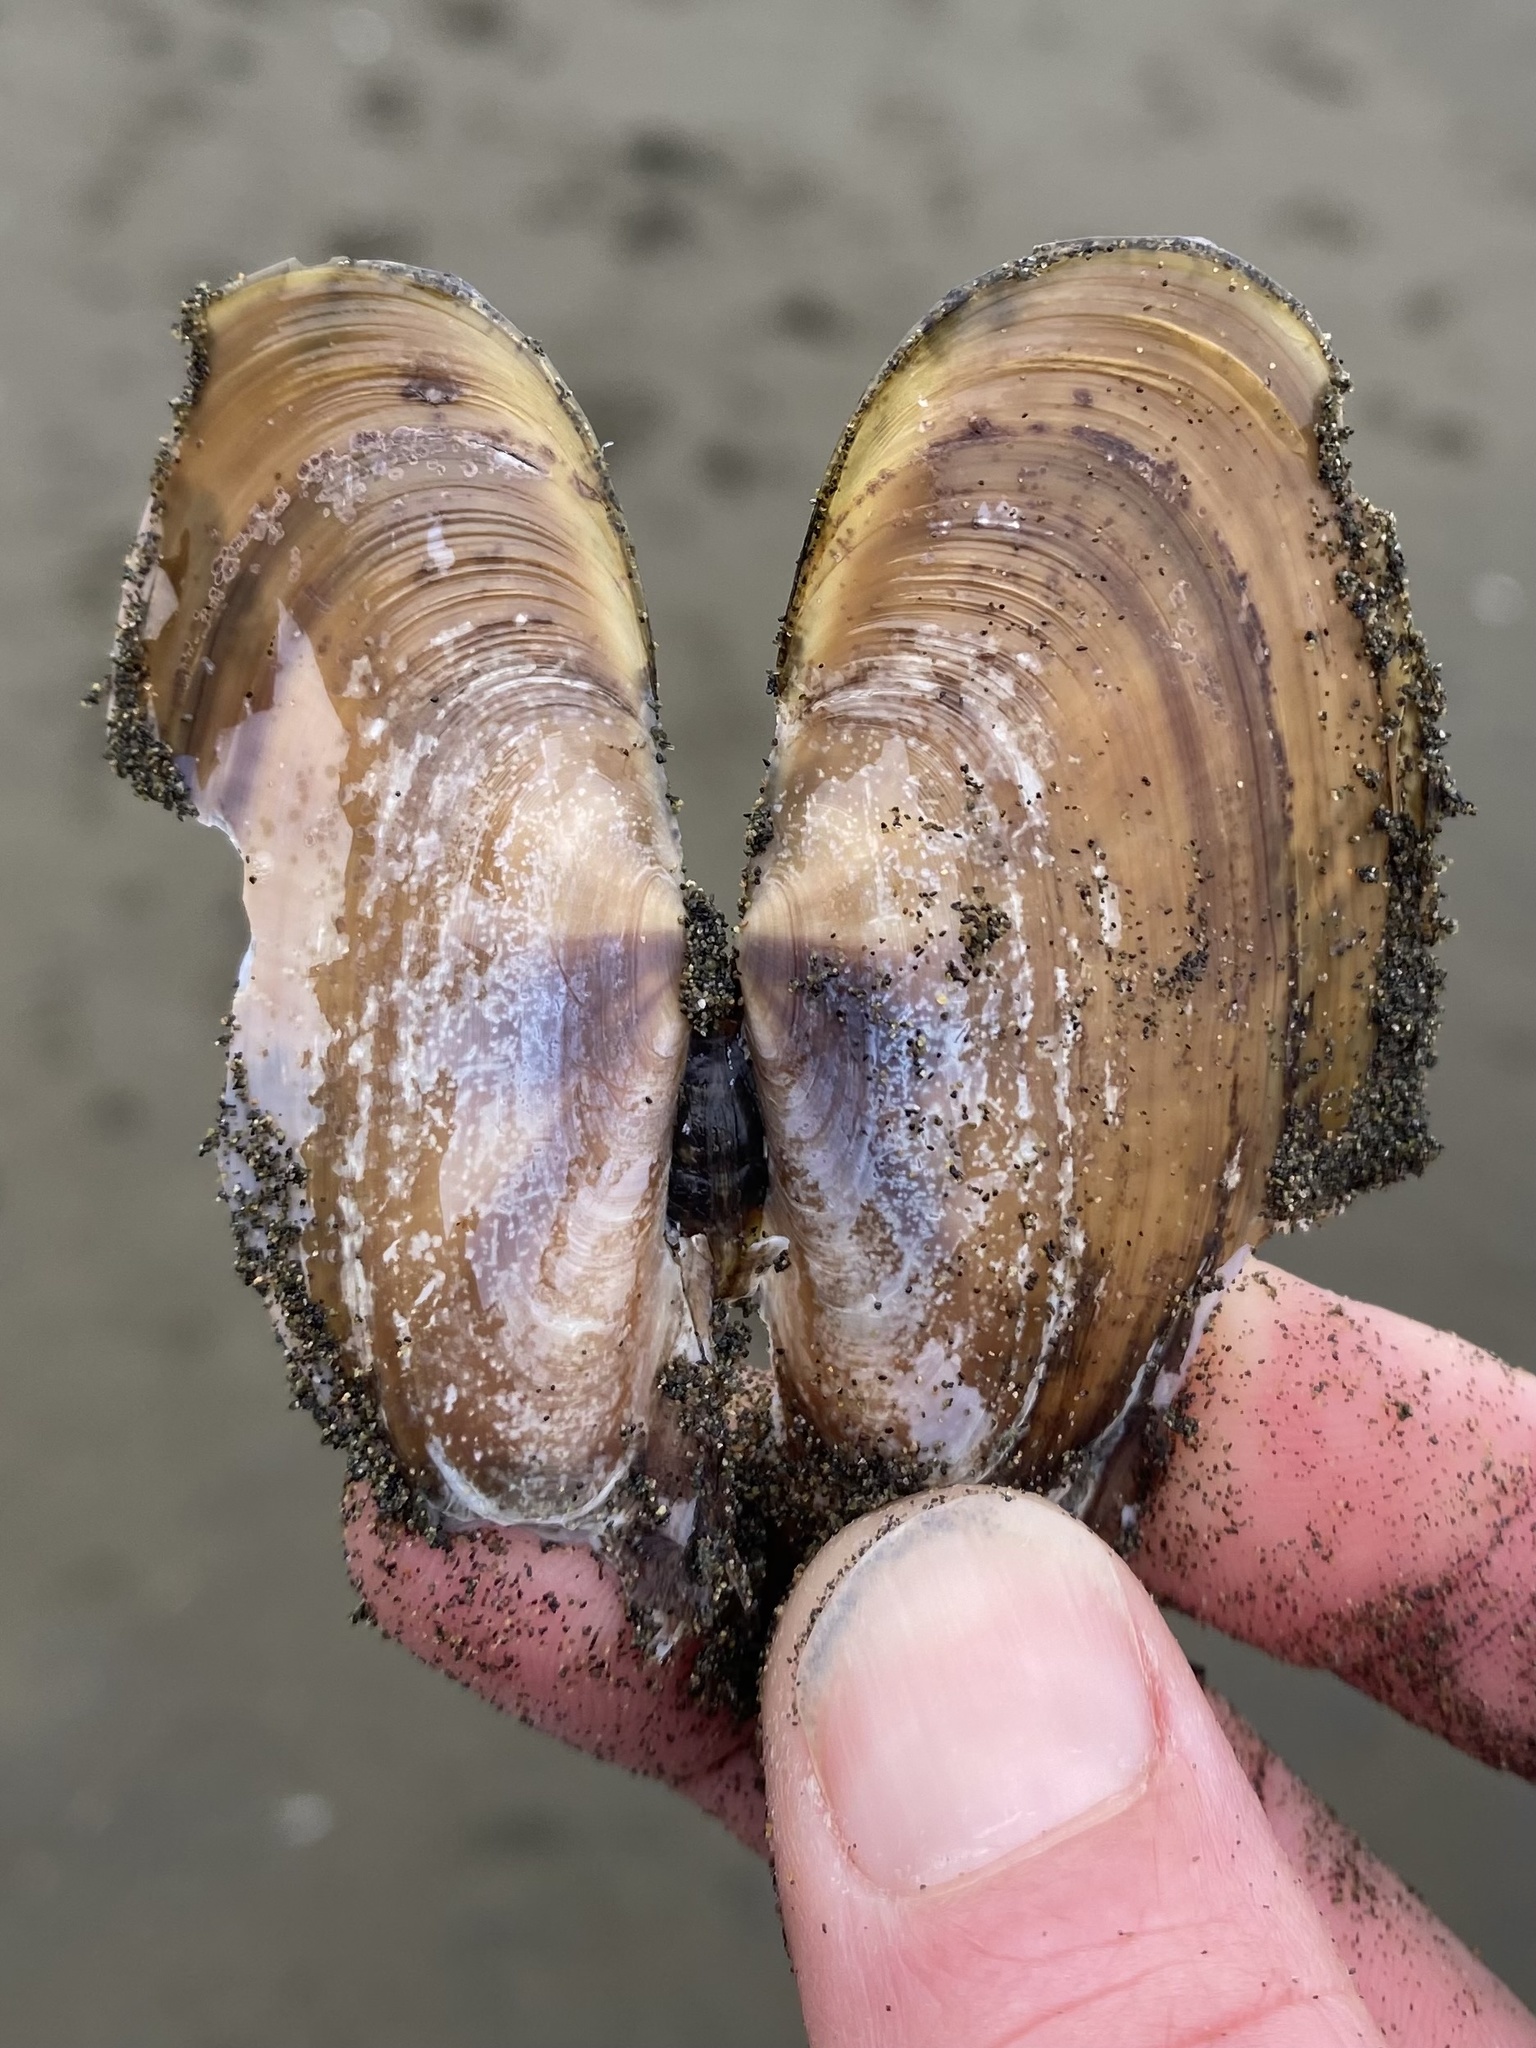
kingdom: Animalia
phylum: Mollusca
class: Bivalvia
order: Adapedonta
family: Pharidae
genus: Siliqua
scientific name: Siliqua patula
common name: Pacific razor clam
